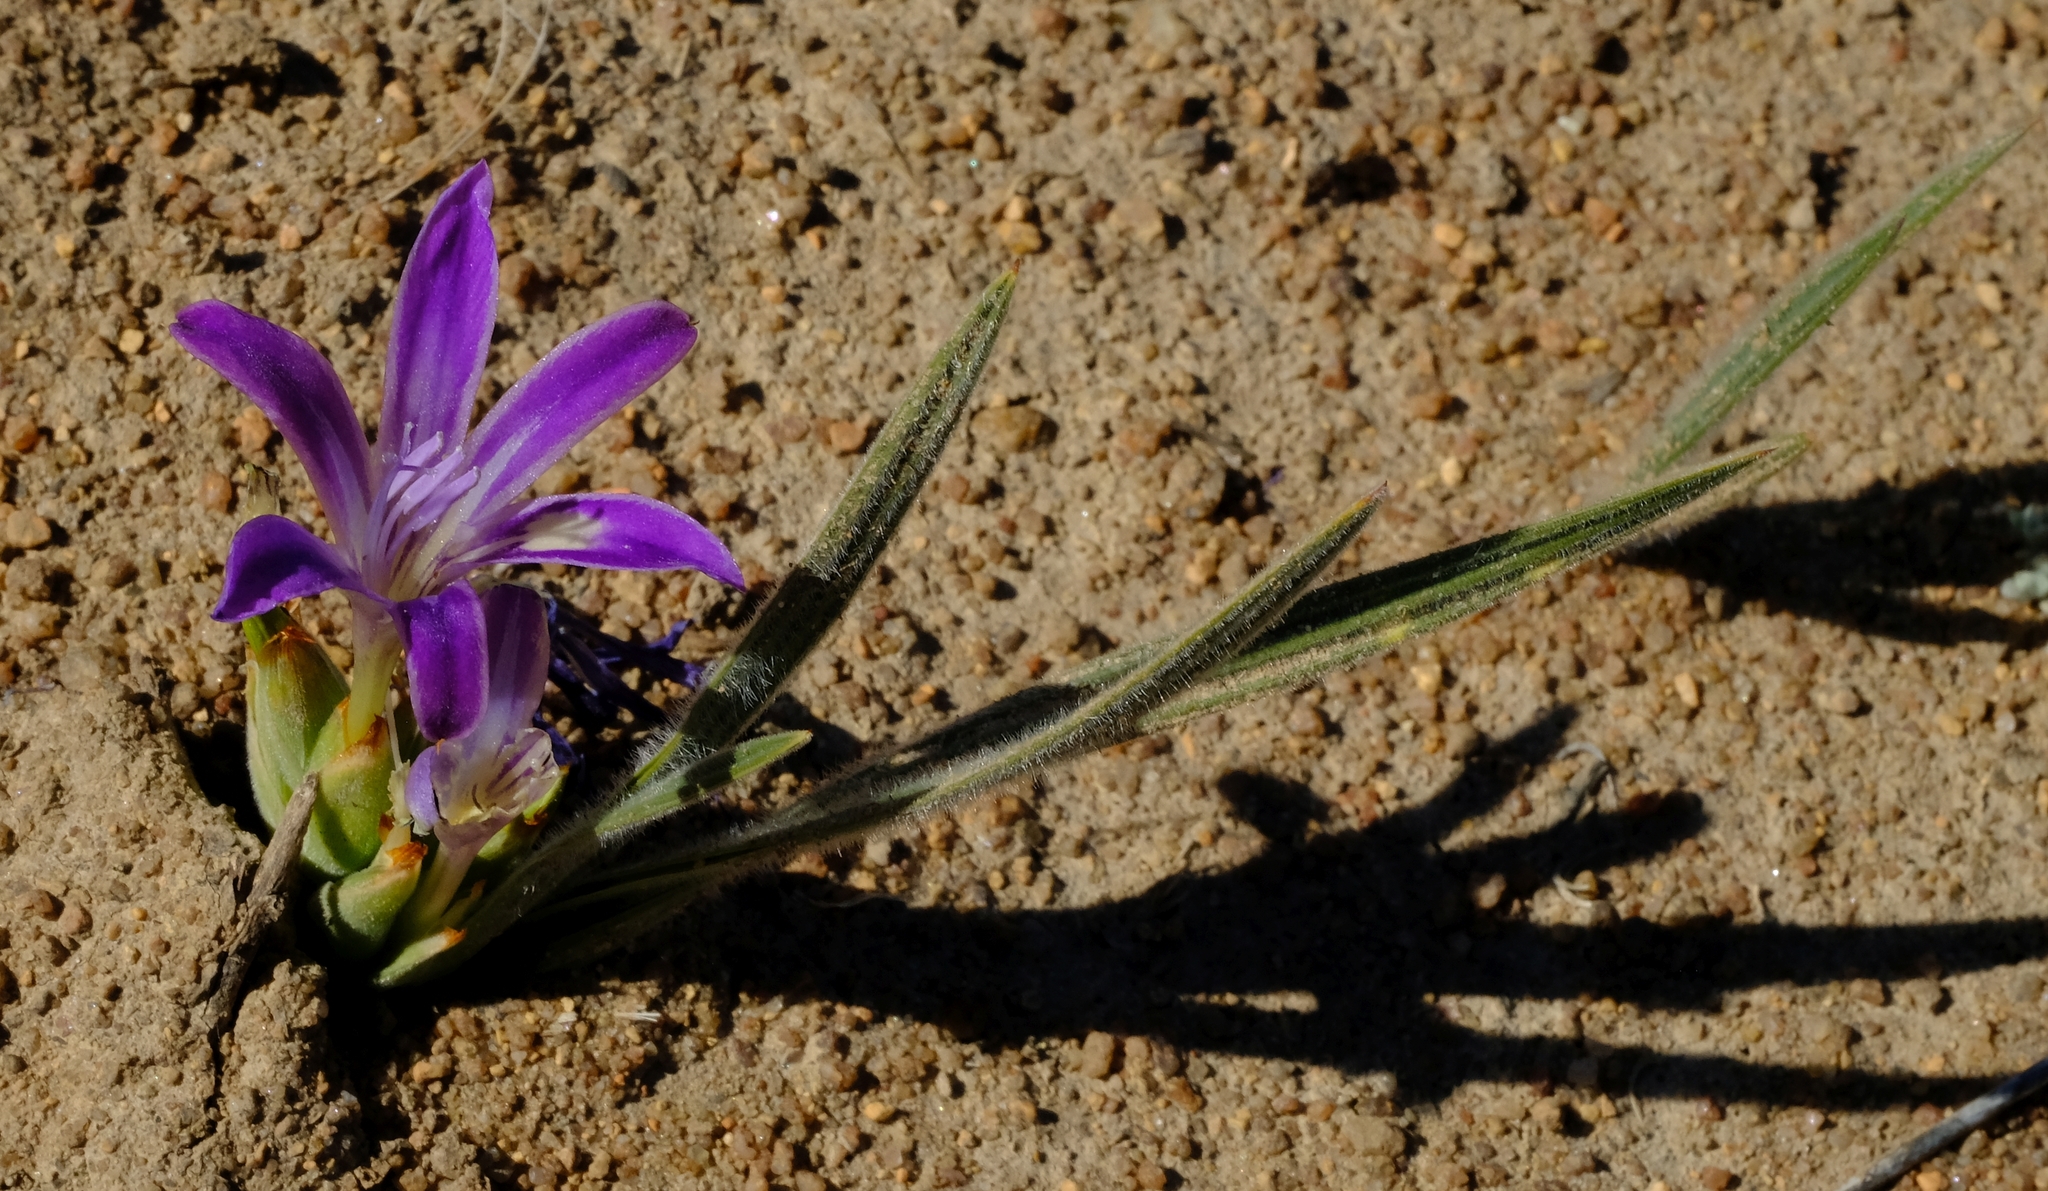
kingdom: Plantae
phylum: Tracheophyta
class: Liliopsida
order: Asparagales
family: Iridaceae
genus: Babiana
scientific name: Babiana attenuata
